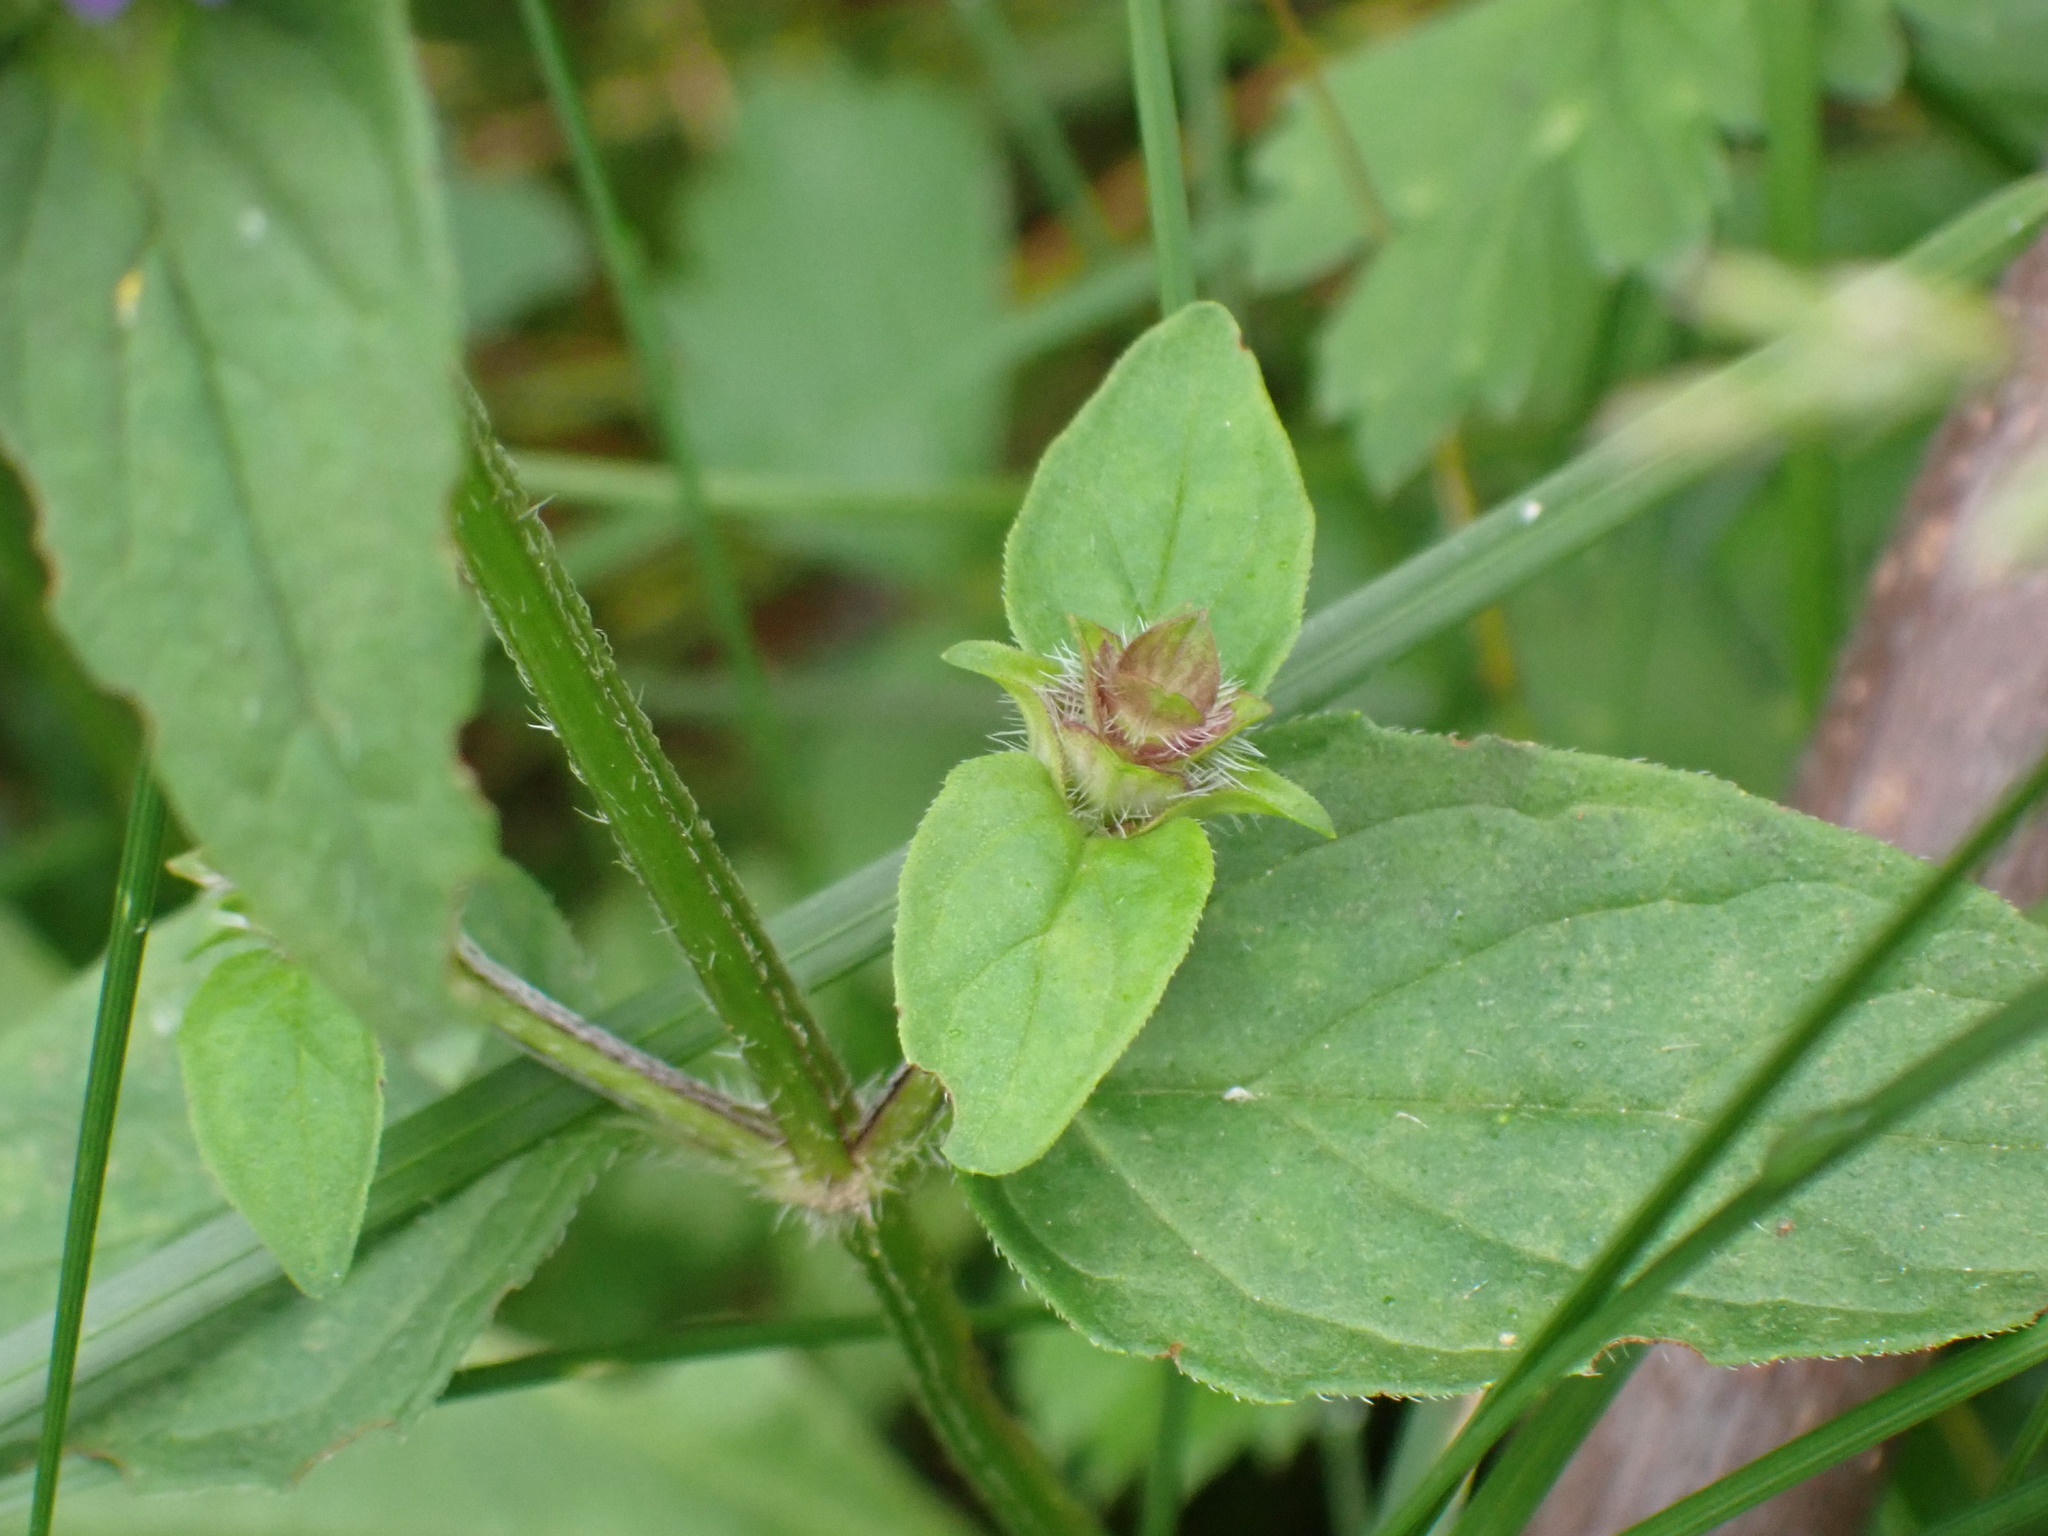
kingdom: Plantae
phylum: Tracheophyta
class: Magnoliopsida
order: Lamiales
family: Lamiaceae
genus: Prunella
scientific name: Prunella vulgaris
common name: Heal-all
